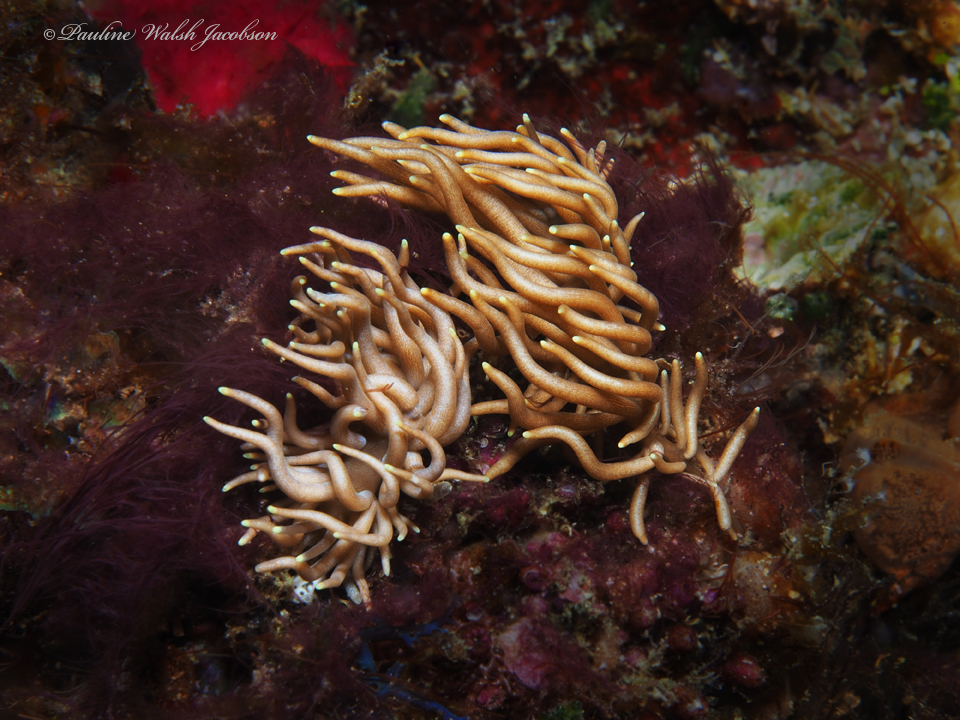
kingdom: Animalia
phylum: Mollusca
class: Gastropoda
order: Nudibranchia
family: Myrrhinidae
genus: Phyllodesmium
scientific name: Phyllodesmium briareum
